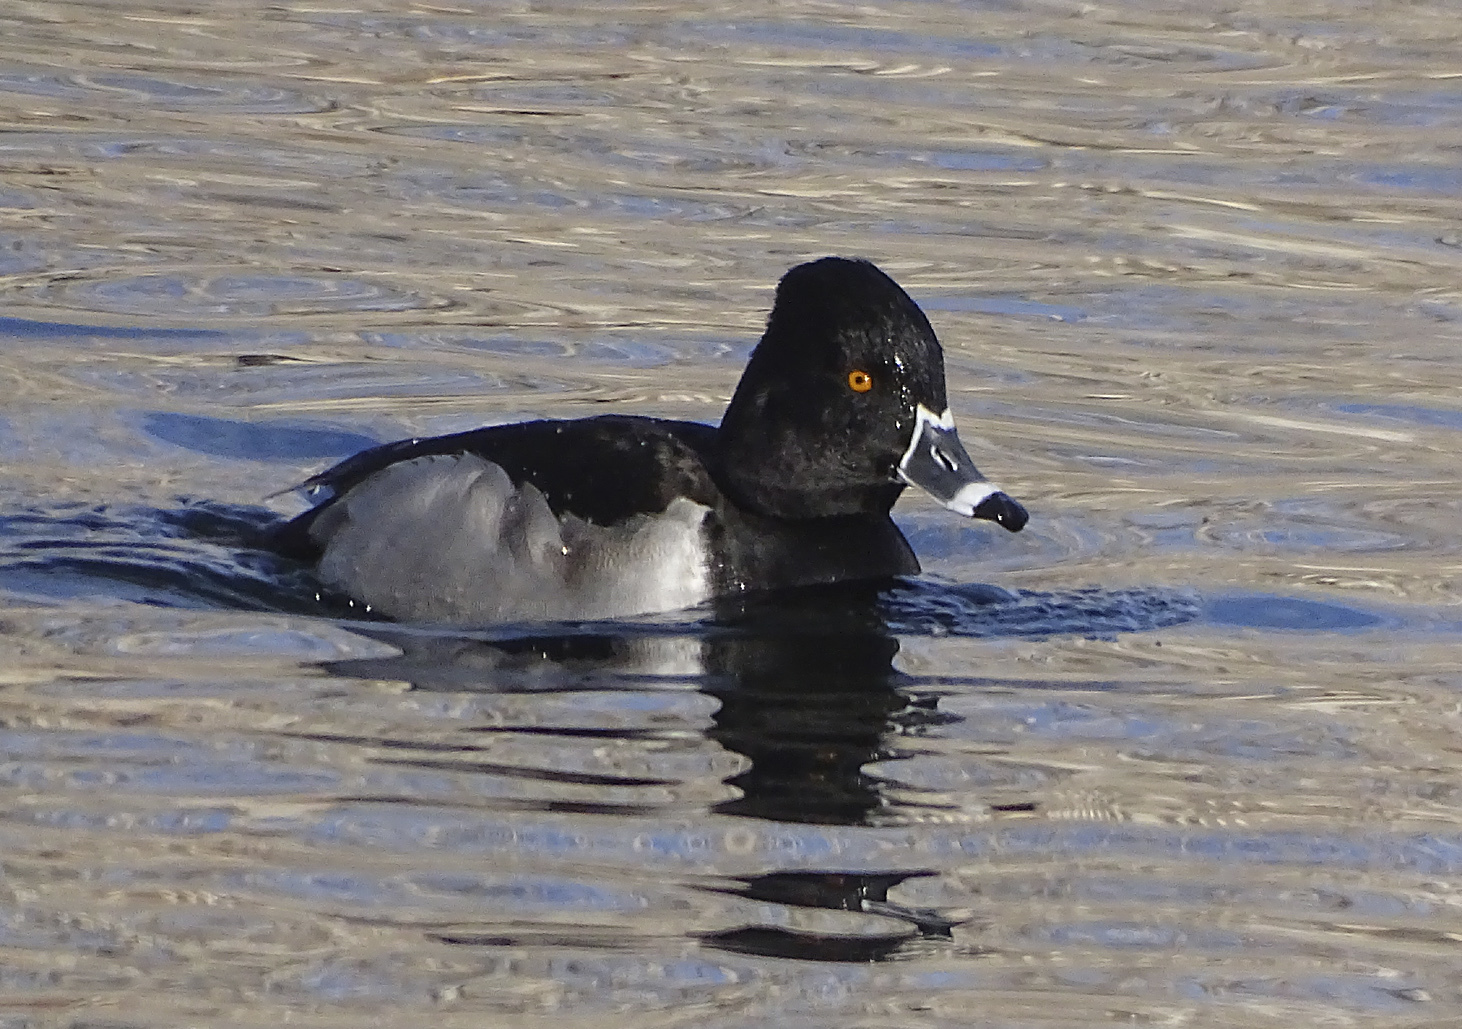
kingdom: Animalia
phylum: Chordata
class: Aves
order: Anseriformes
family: Anatidae
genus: Aythya
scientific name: Aythya collaris
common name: Ring-necked duck
